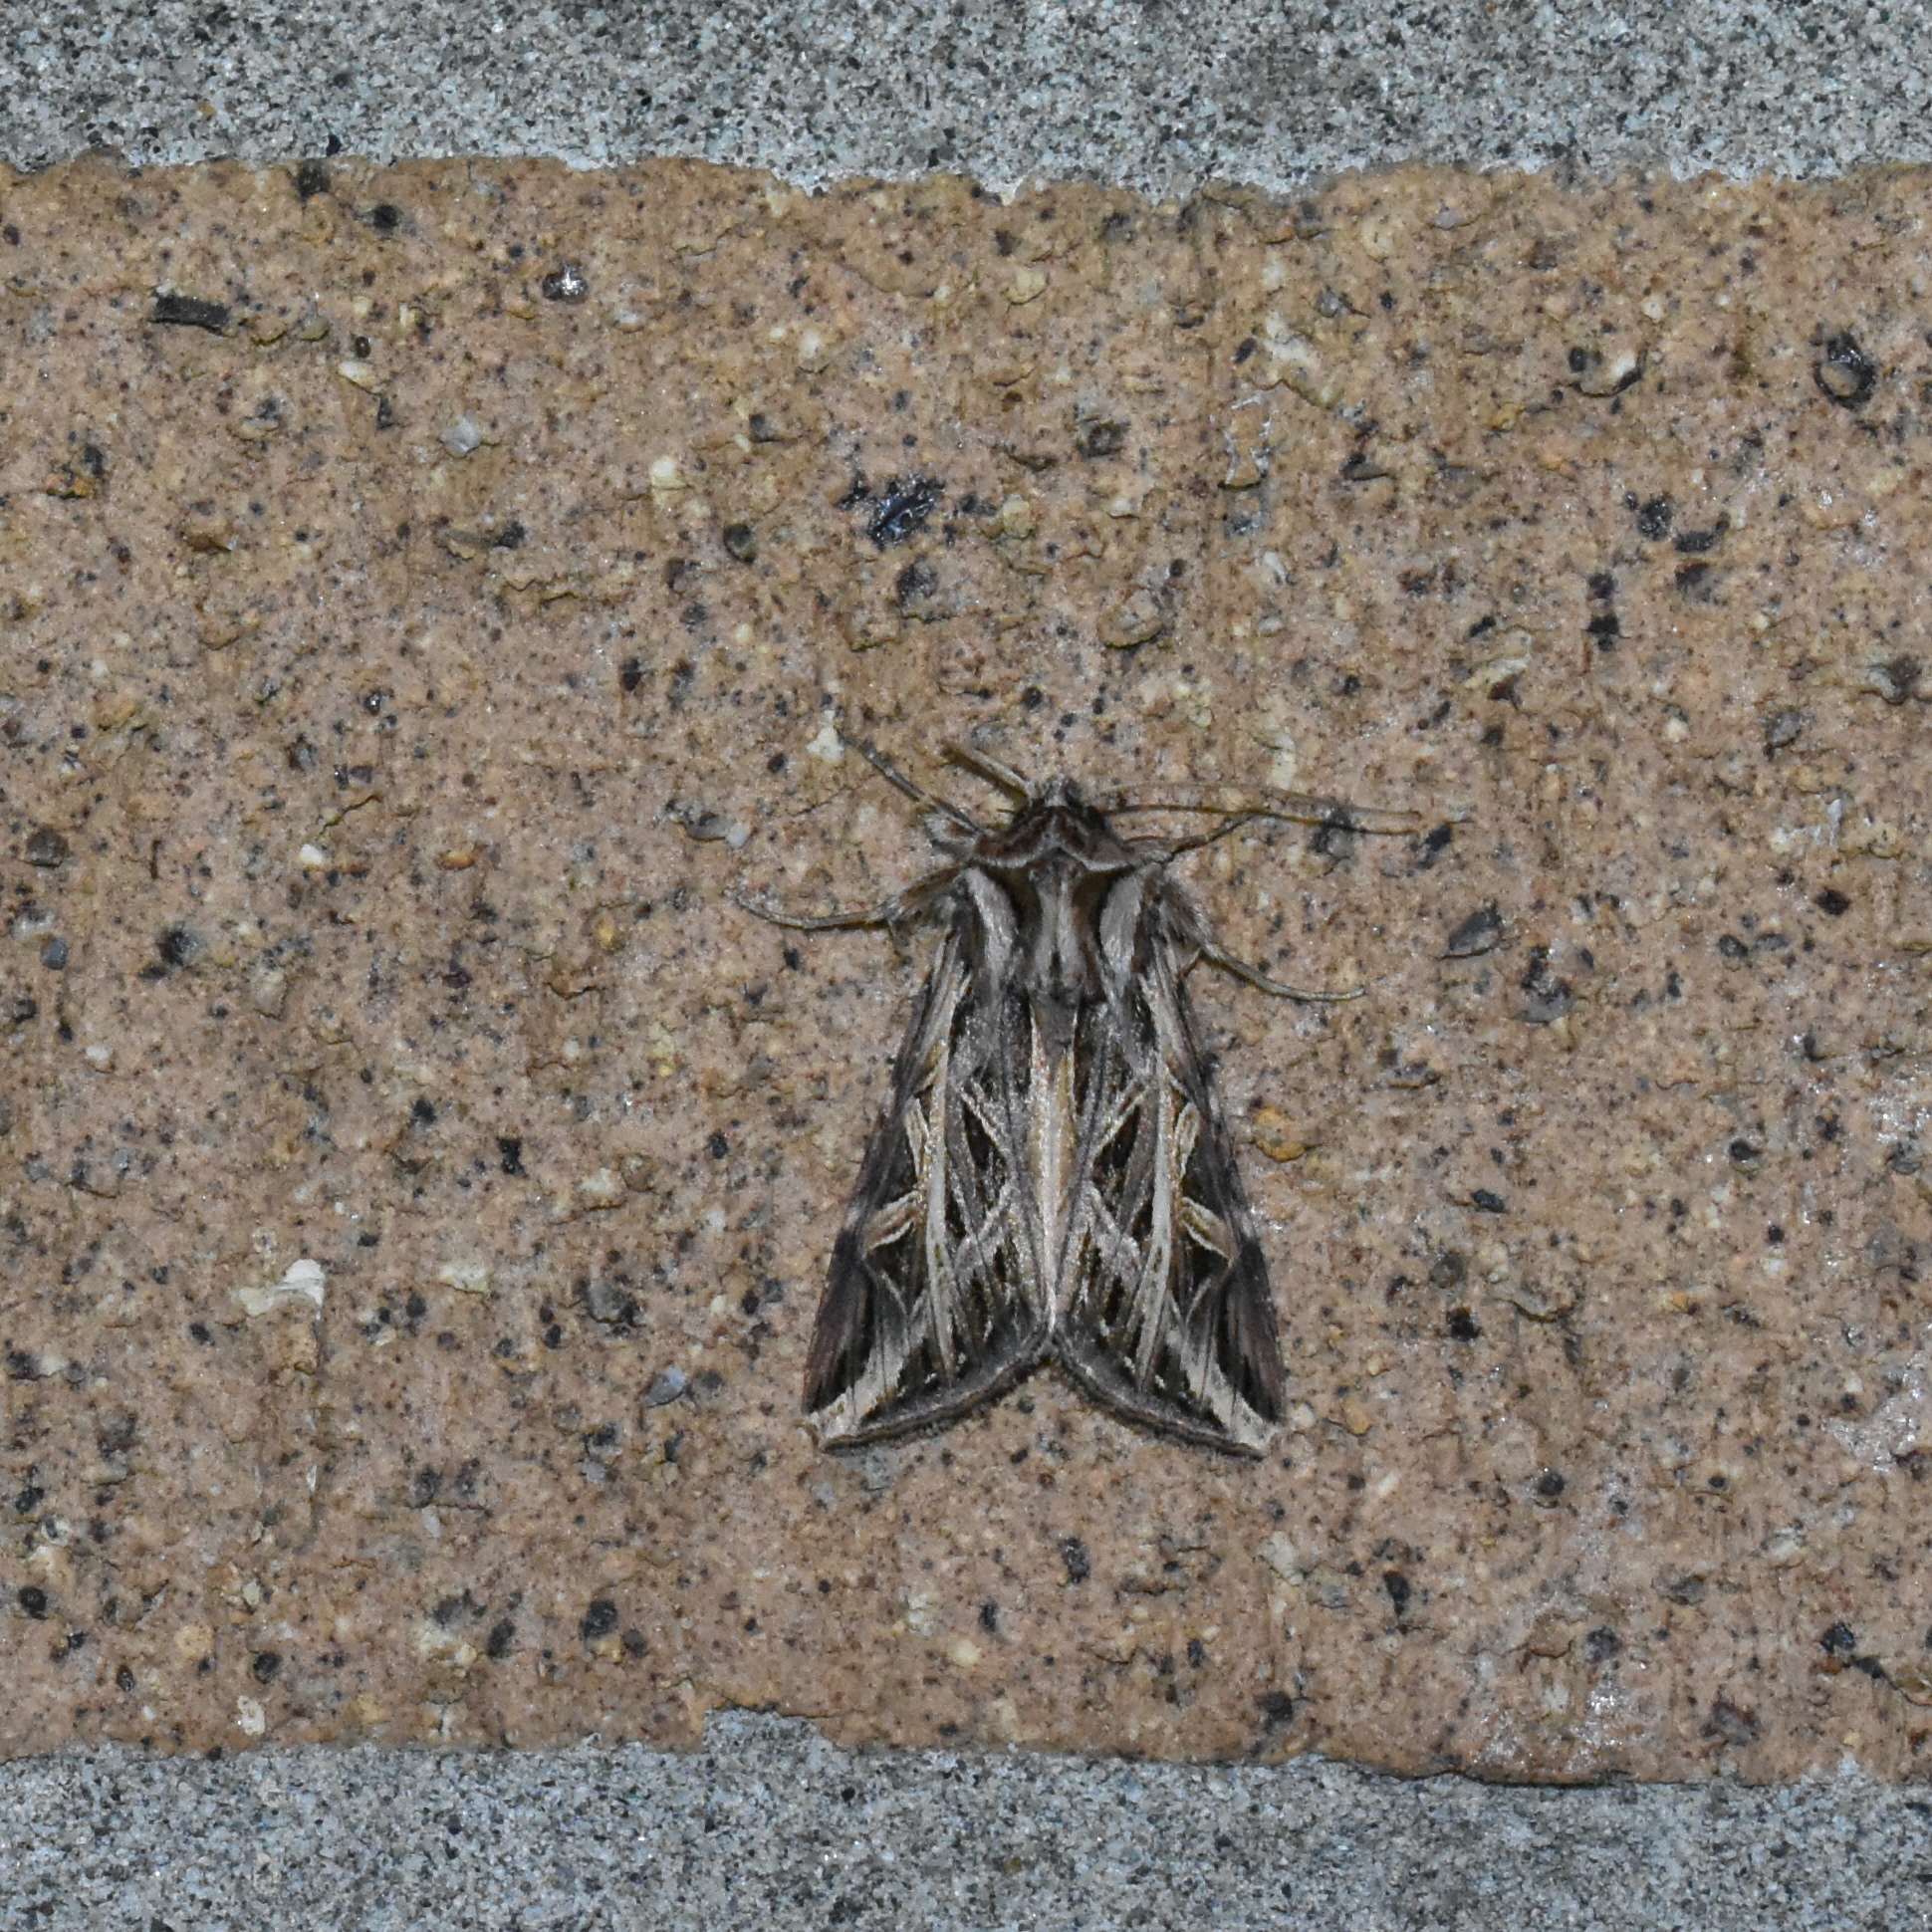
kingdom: Animalia
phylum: Arthropoda
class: Insecta
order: Lepidoptera
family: Noctuidae
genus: Dargida
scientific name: Dargida procinctus
